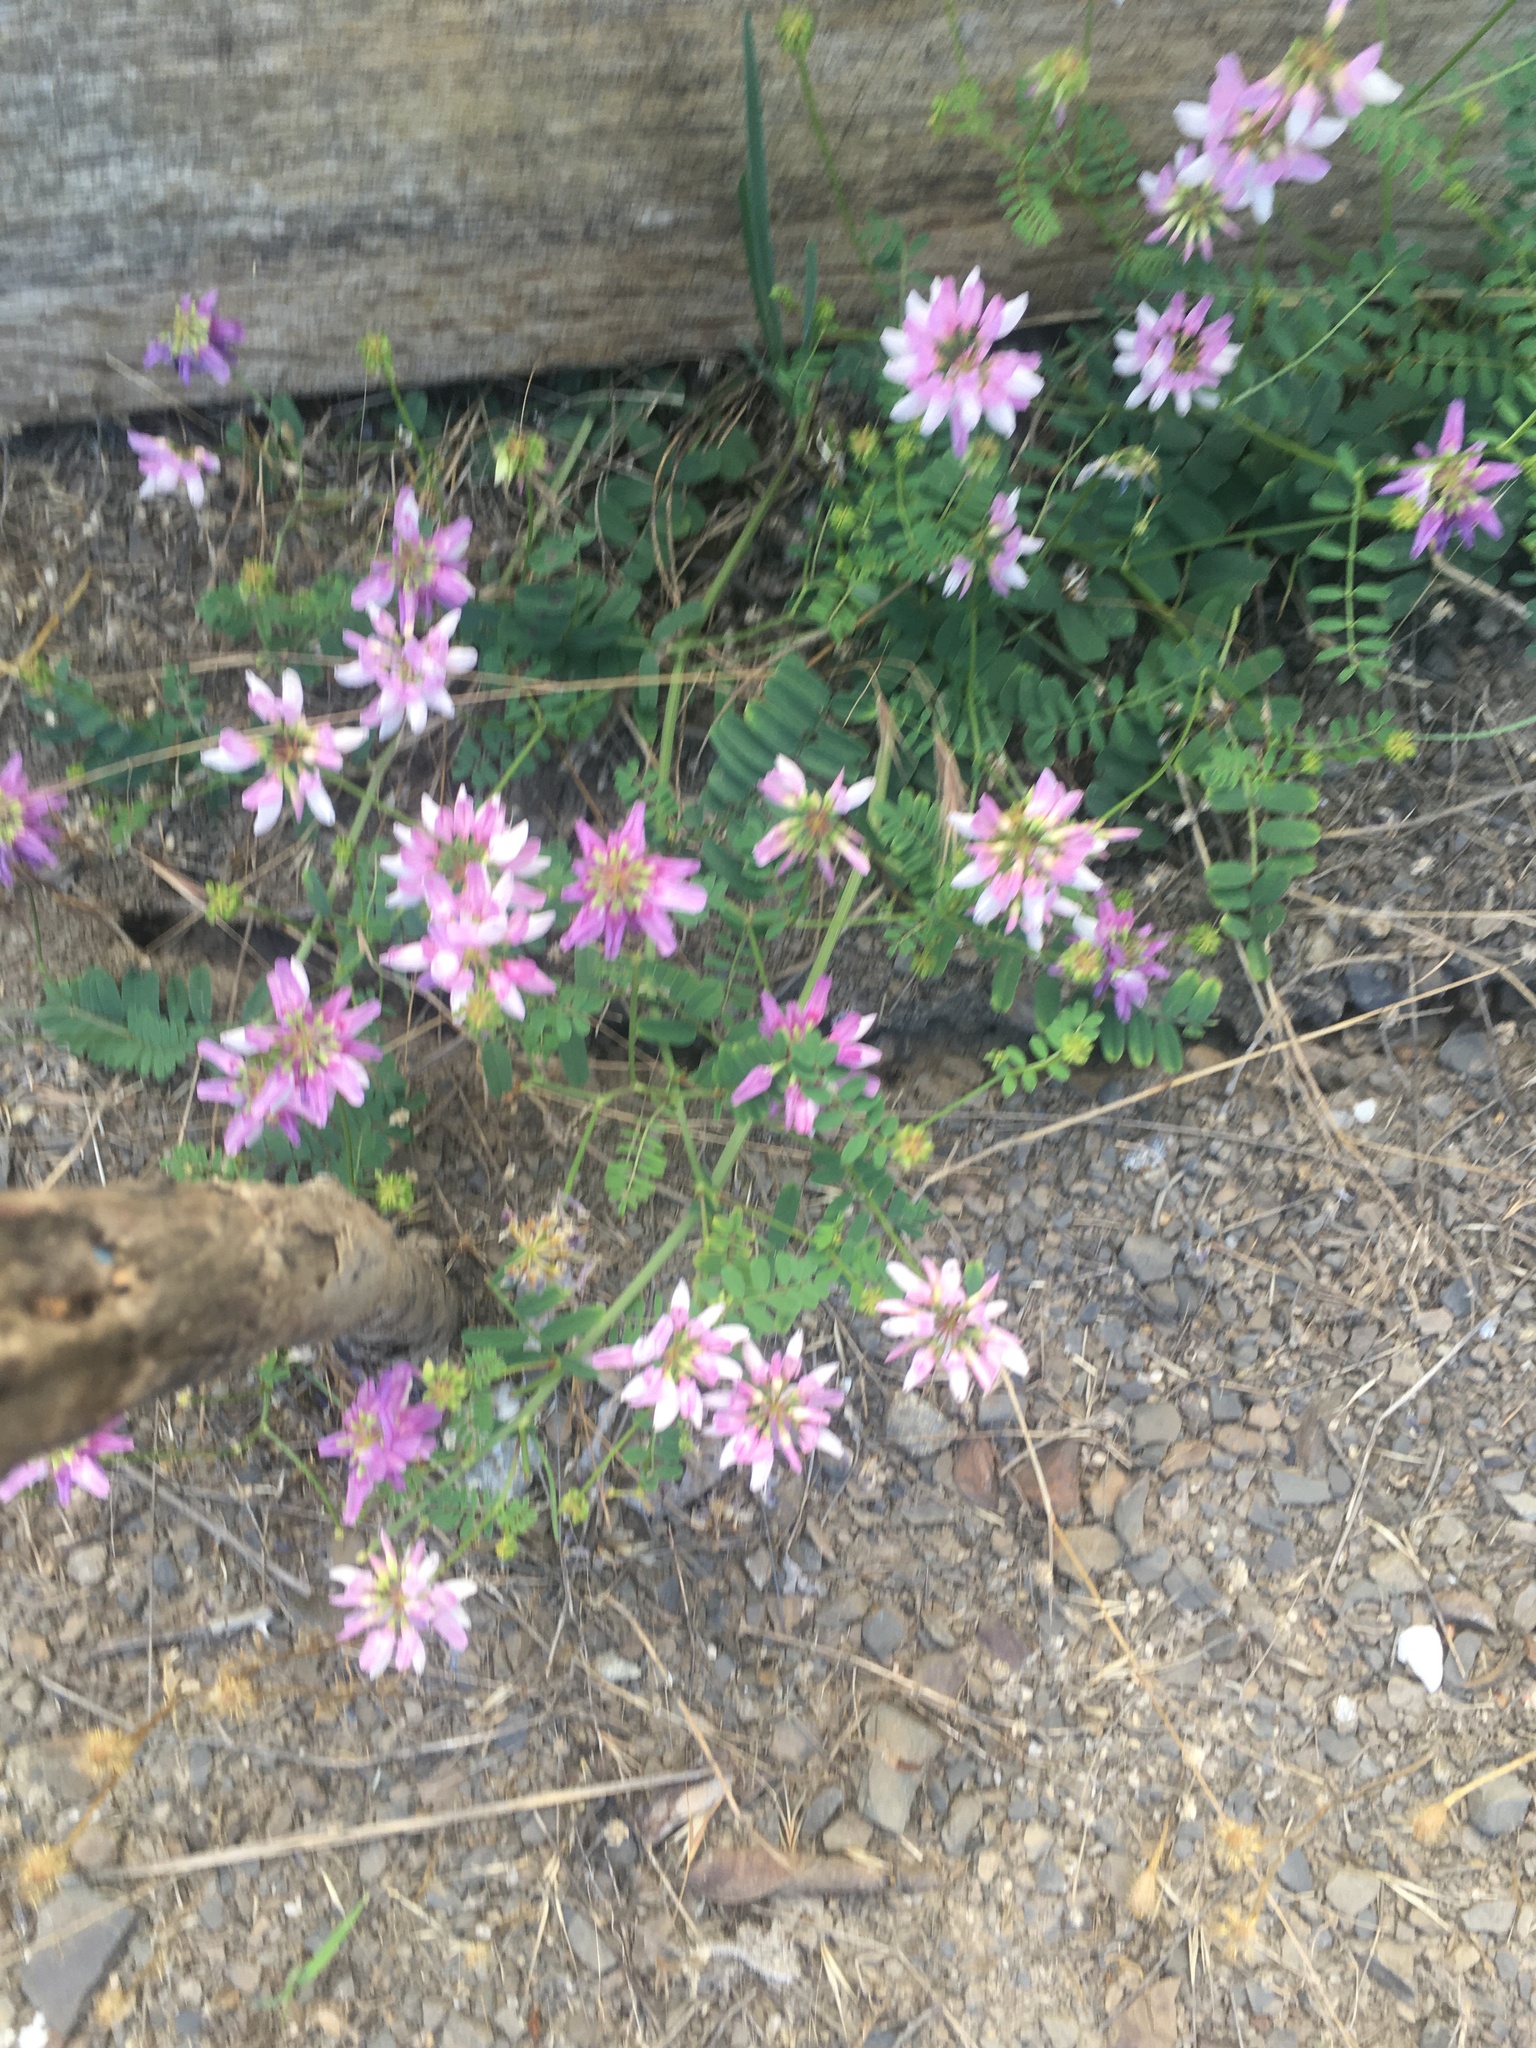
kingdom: Plantae
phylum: Tracheophyta
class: Magnoliopsida
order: Fabales
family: Fabaceae
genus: Coronilla
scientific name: Coronilla varia
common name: Crownvetch
